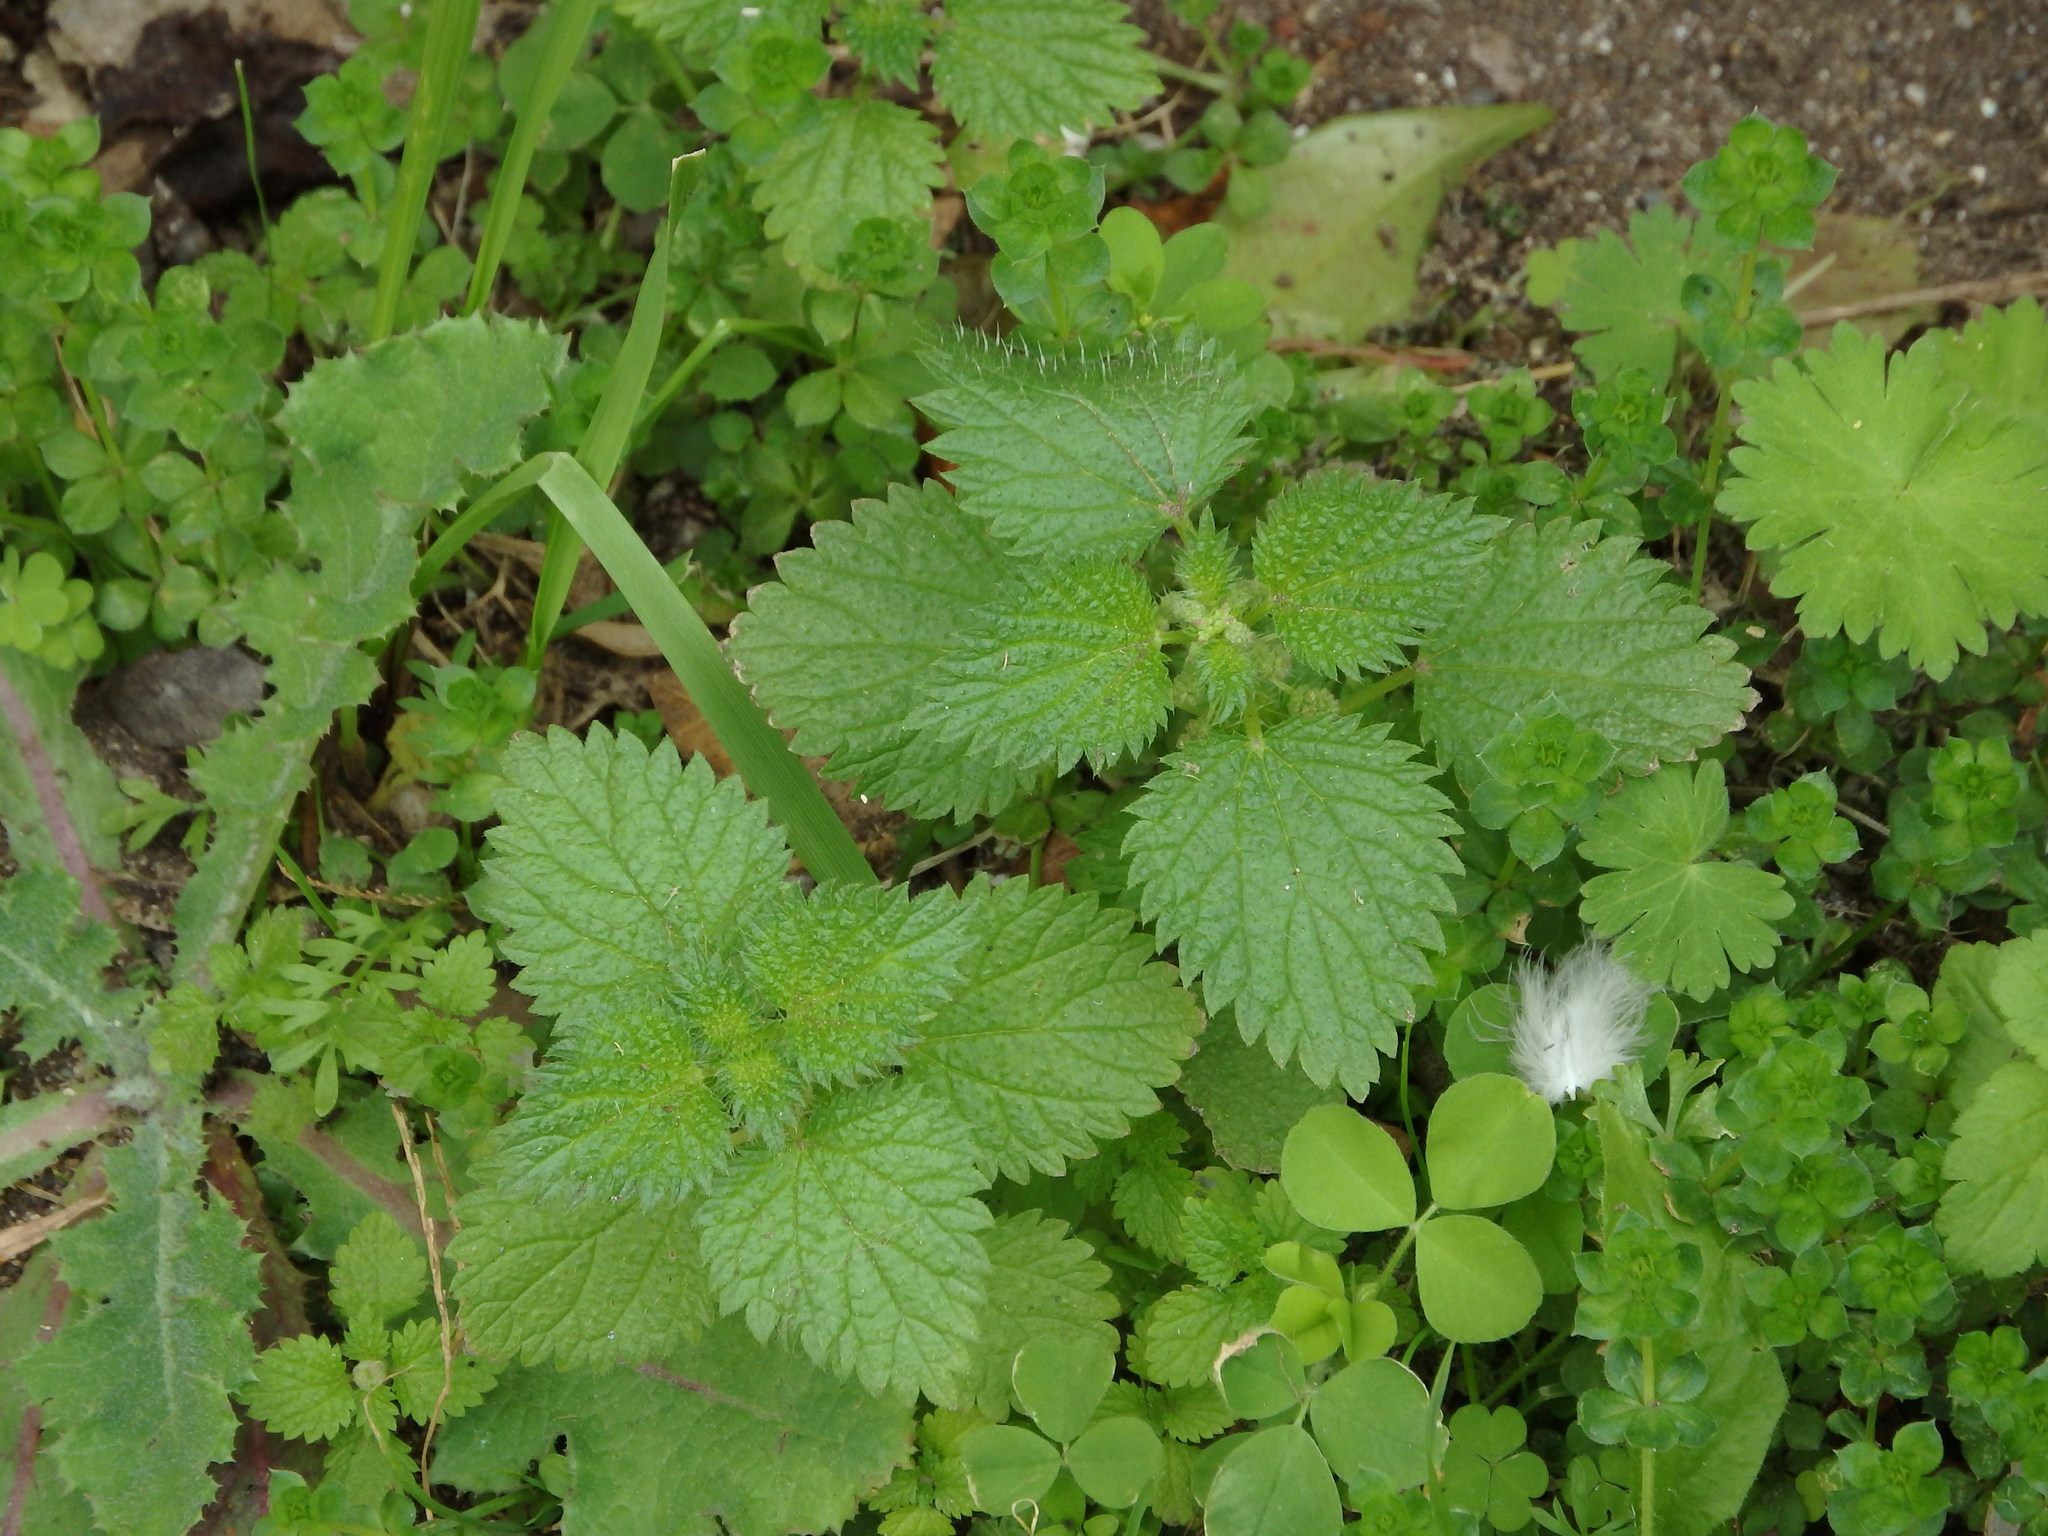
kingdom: Plantae
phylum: Tracheophyta
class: Magnoliopsida
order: Rosales
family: Urticaceae
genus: Urtica
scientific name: Urtica membranacea
